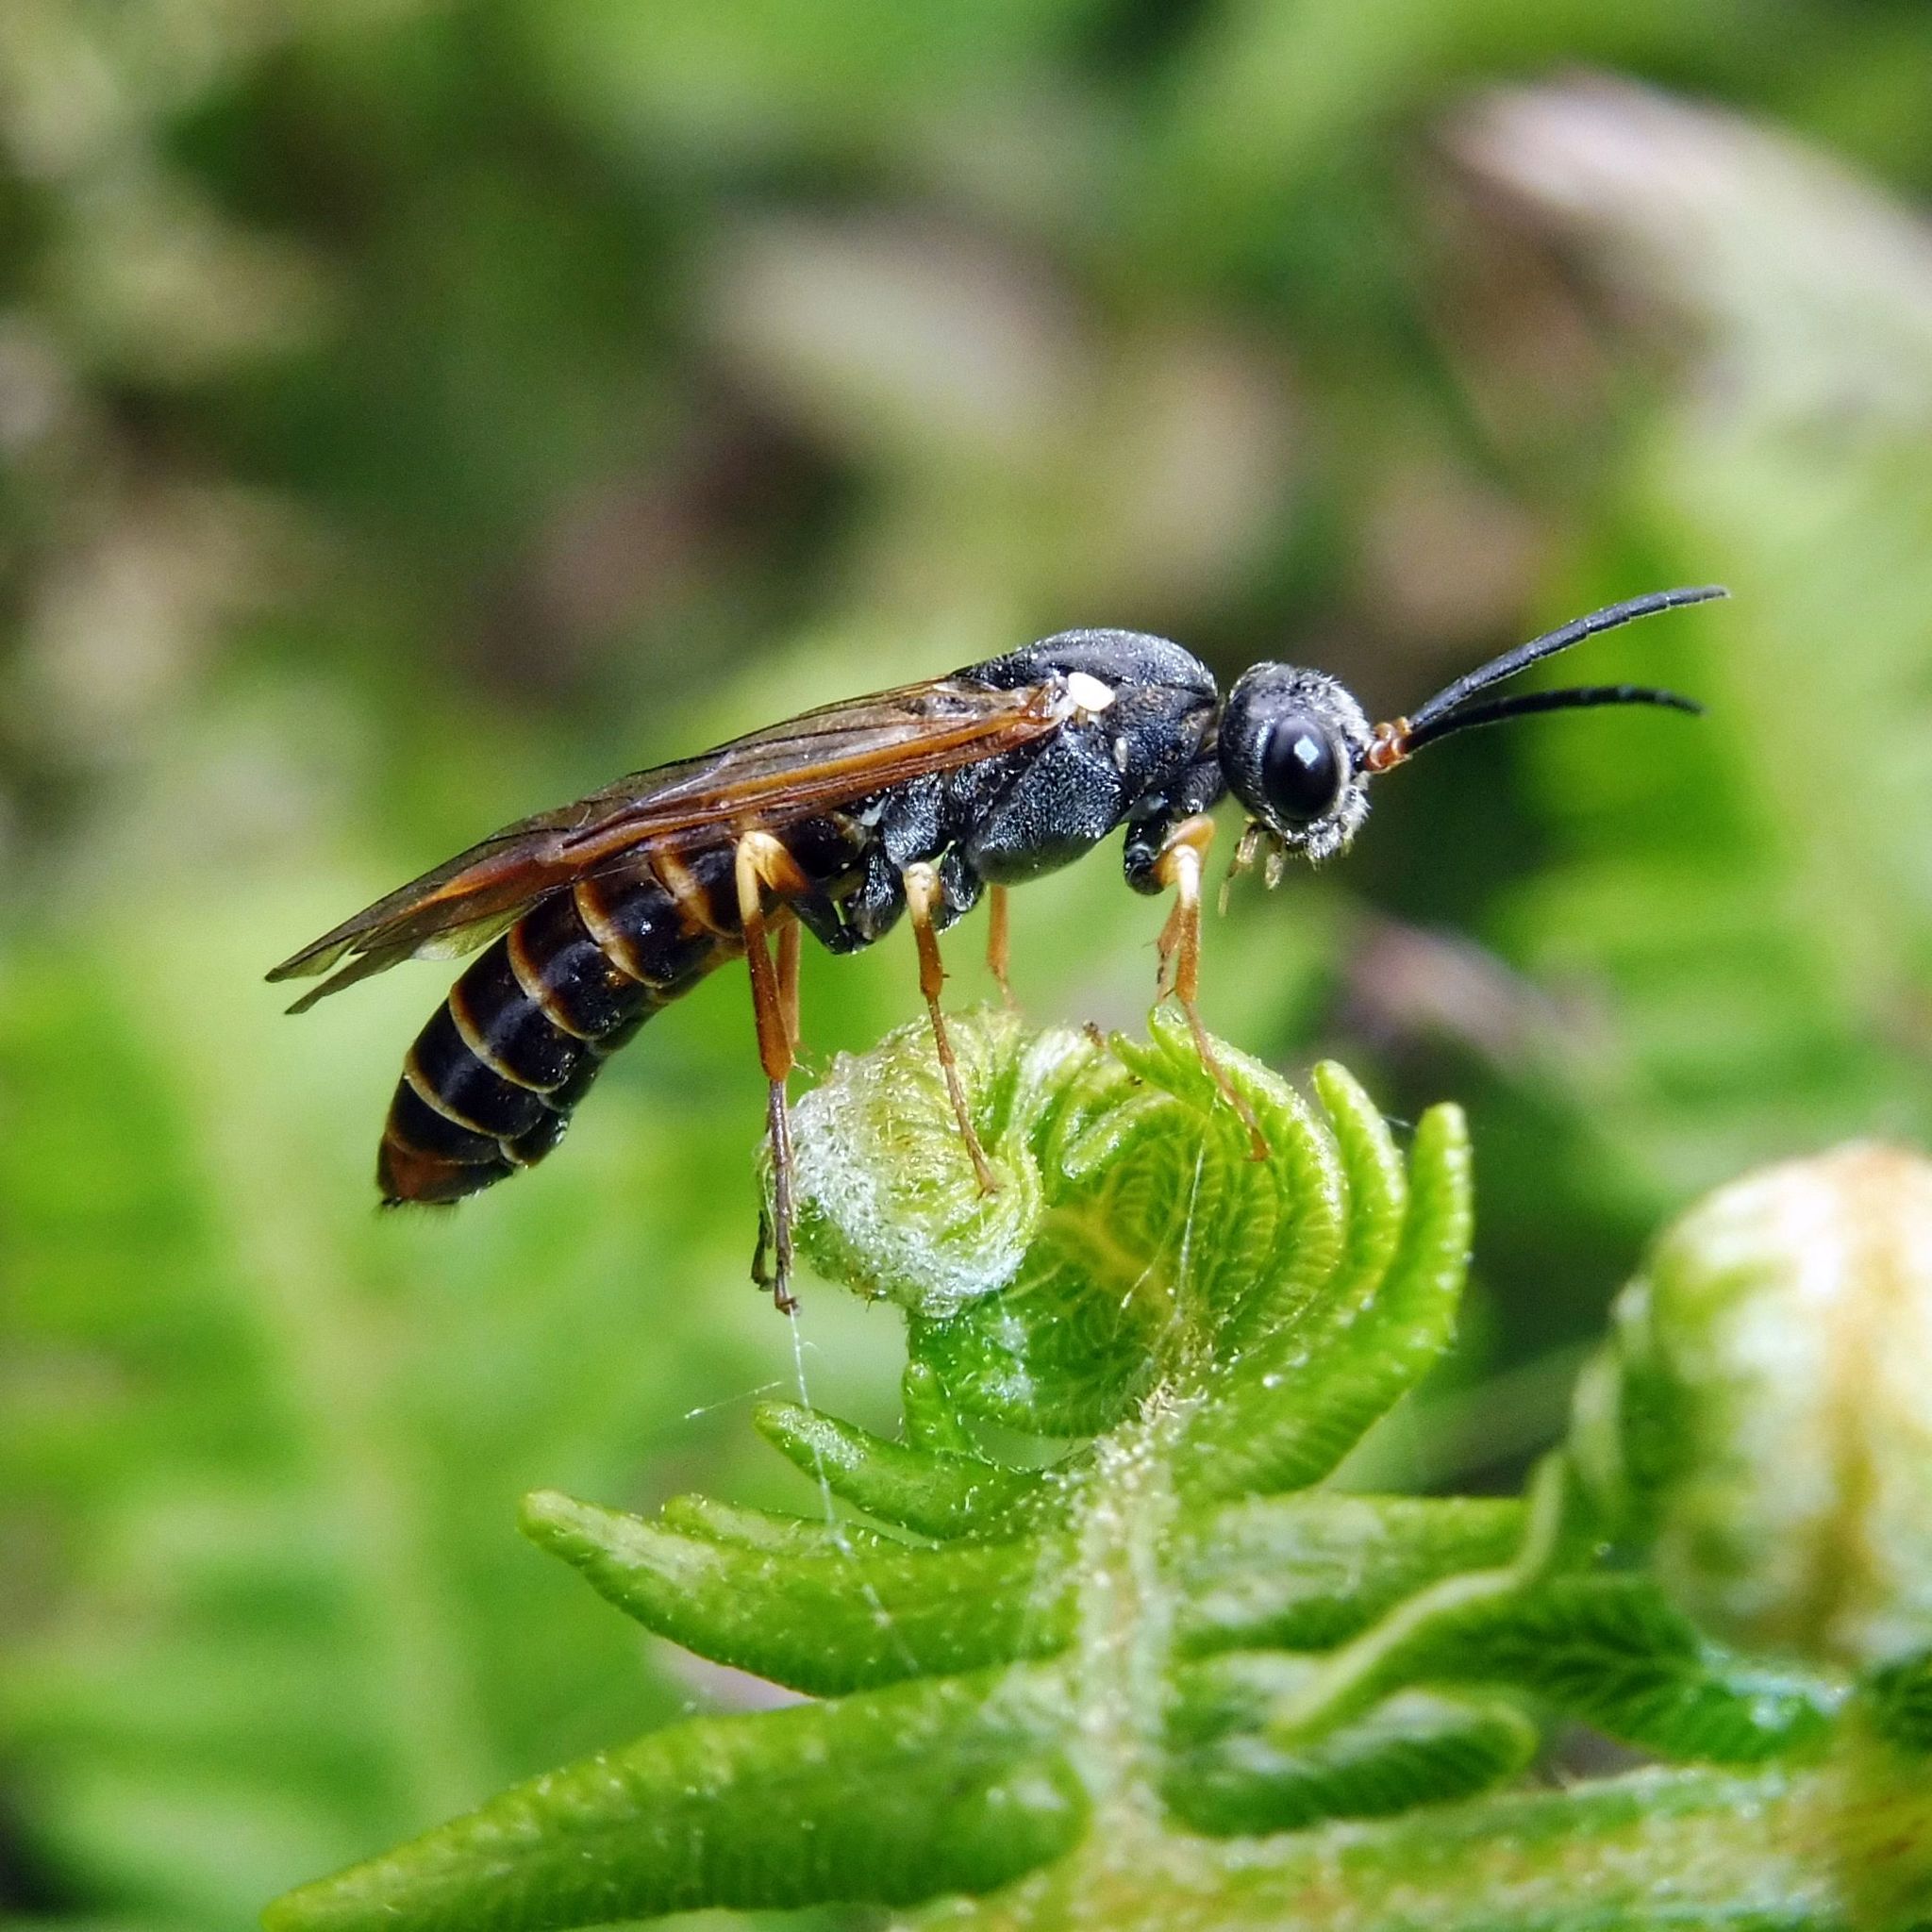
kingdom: Animalia
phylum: Arthropoda
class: Insecta
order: Hymenoptera
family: Tenthredinidae
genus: Strongylogaster
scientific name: Strongylogaster multifasciata
